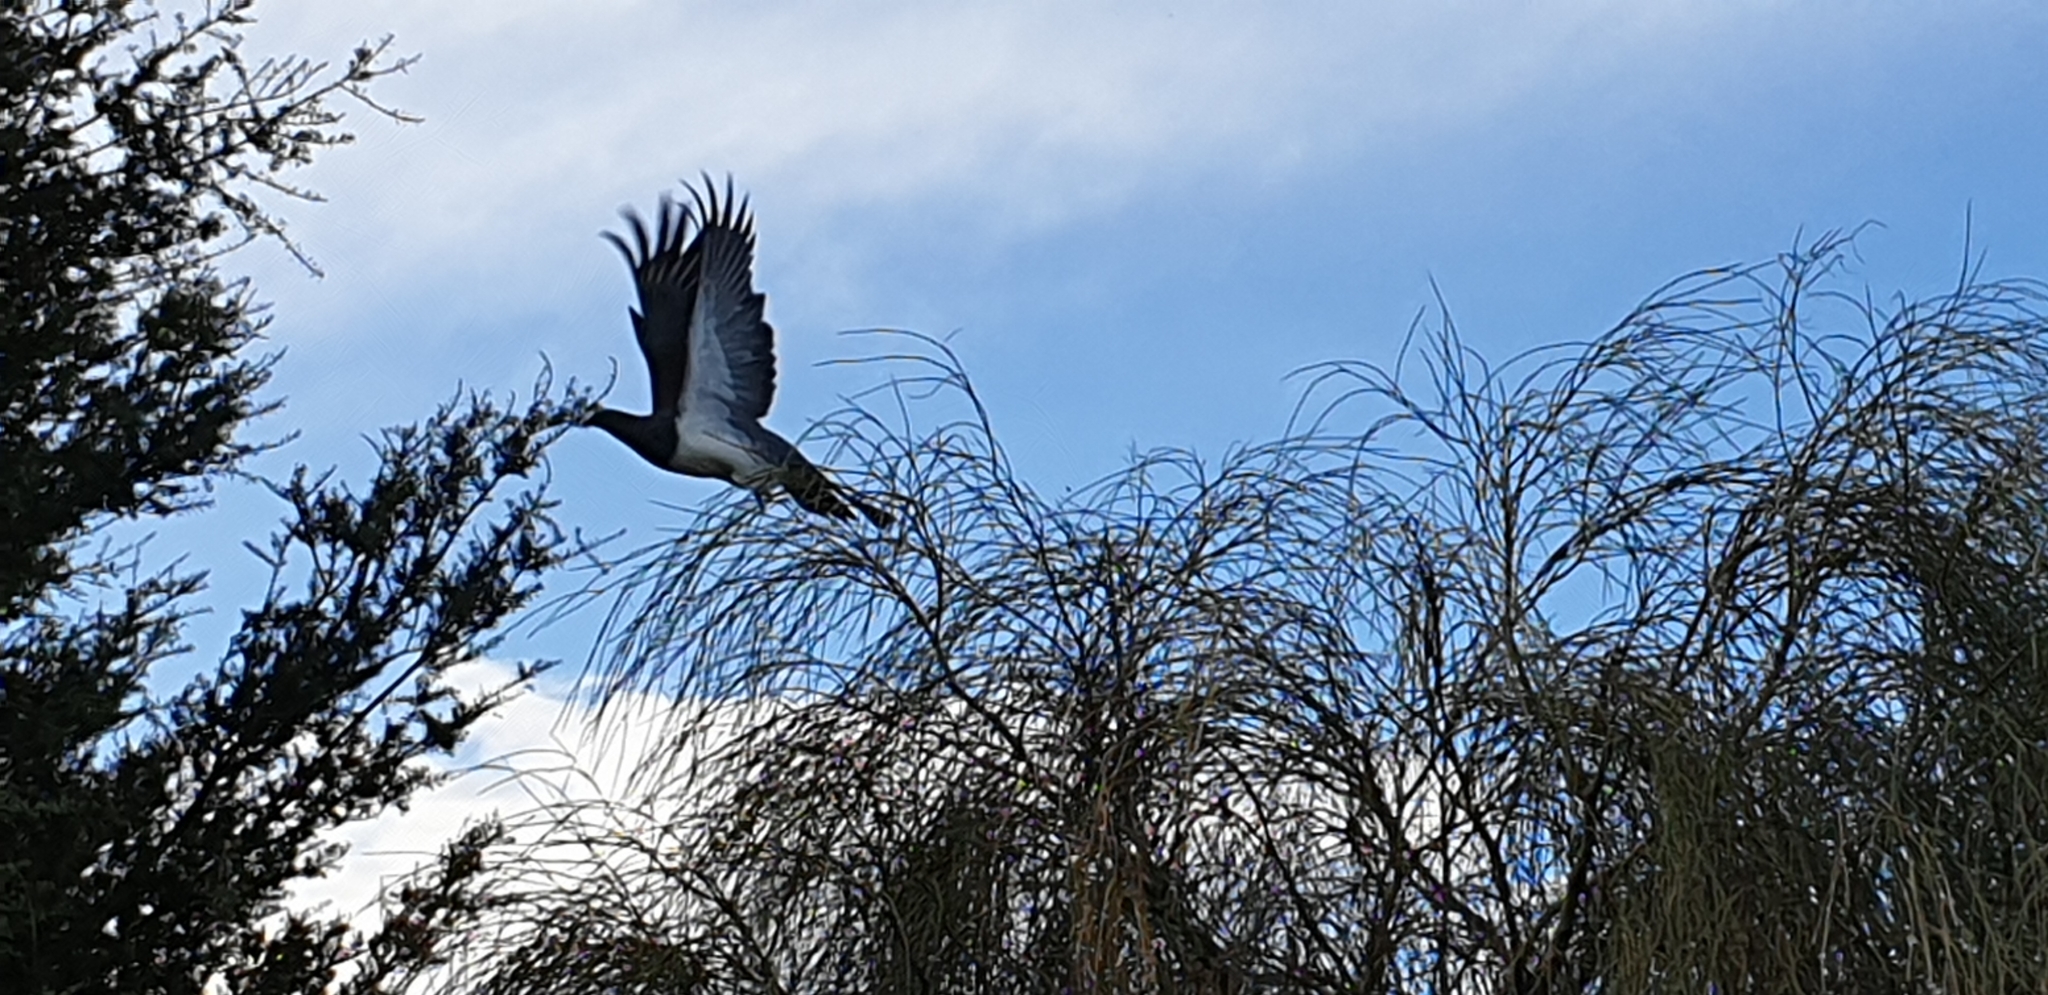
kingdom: Animalia
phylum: Chordata
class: Aves
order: Columbiformes
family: Columbidae
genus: Hemiphaga
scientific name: Hemiphaga novaeseelandiae
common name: New zealand pigeon
